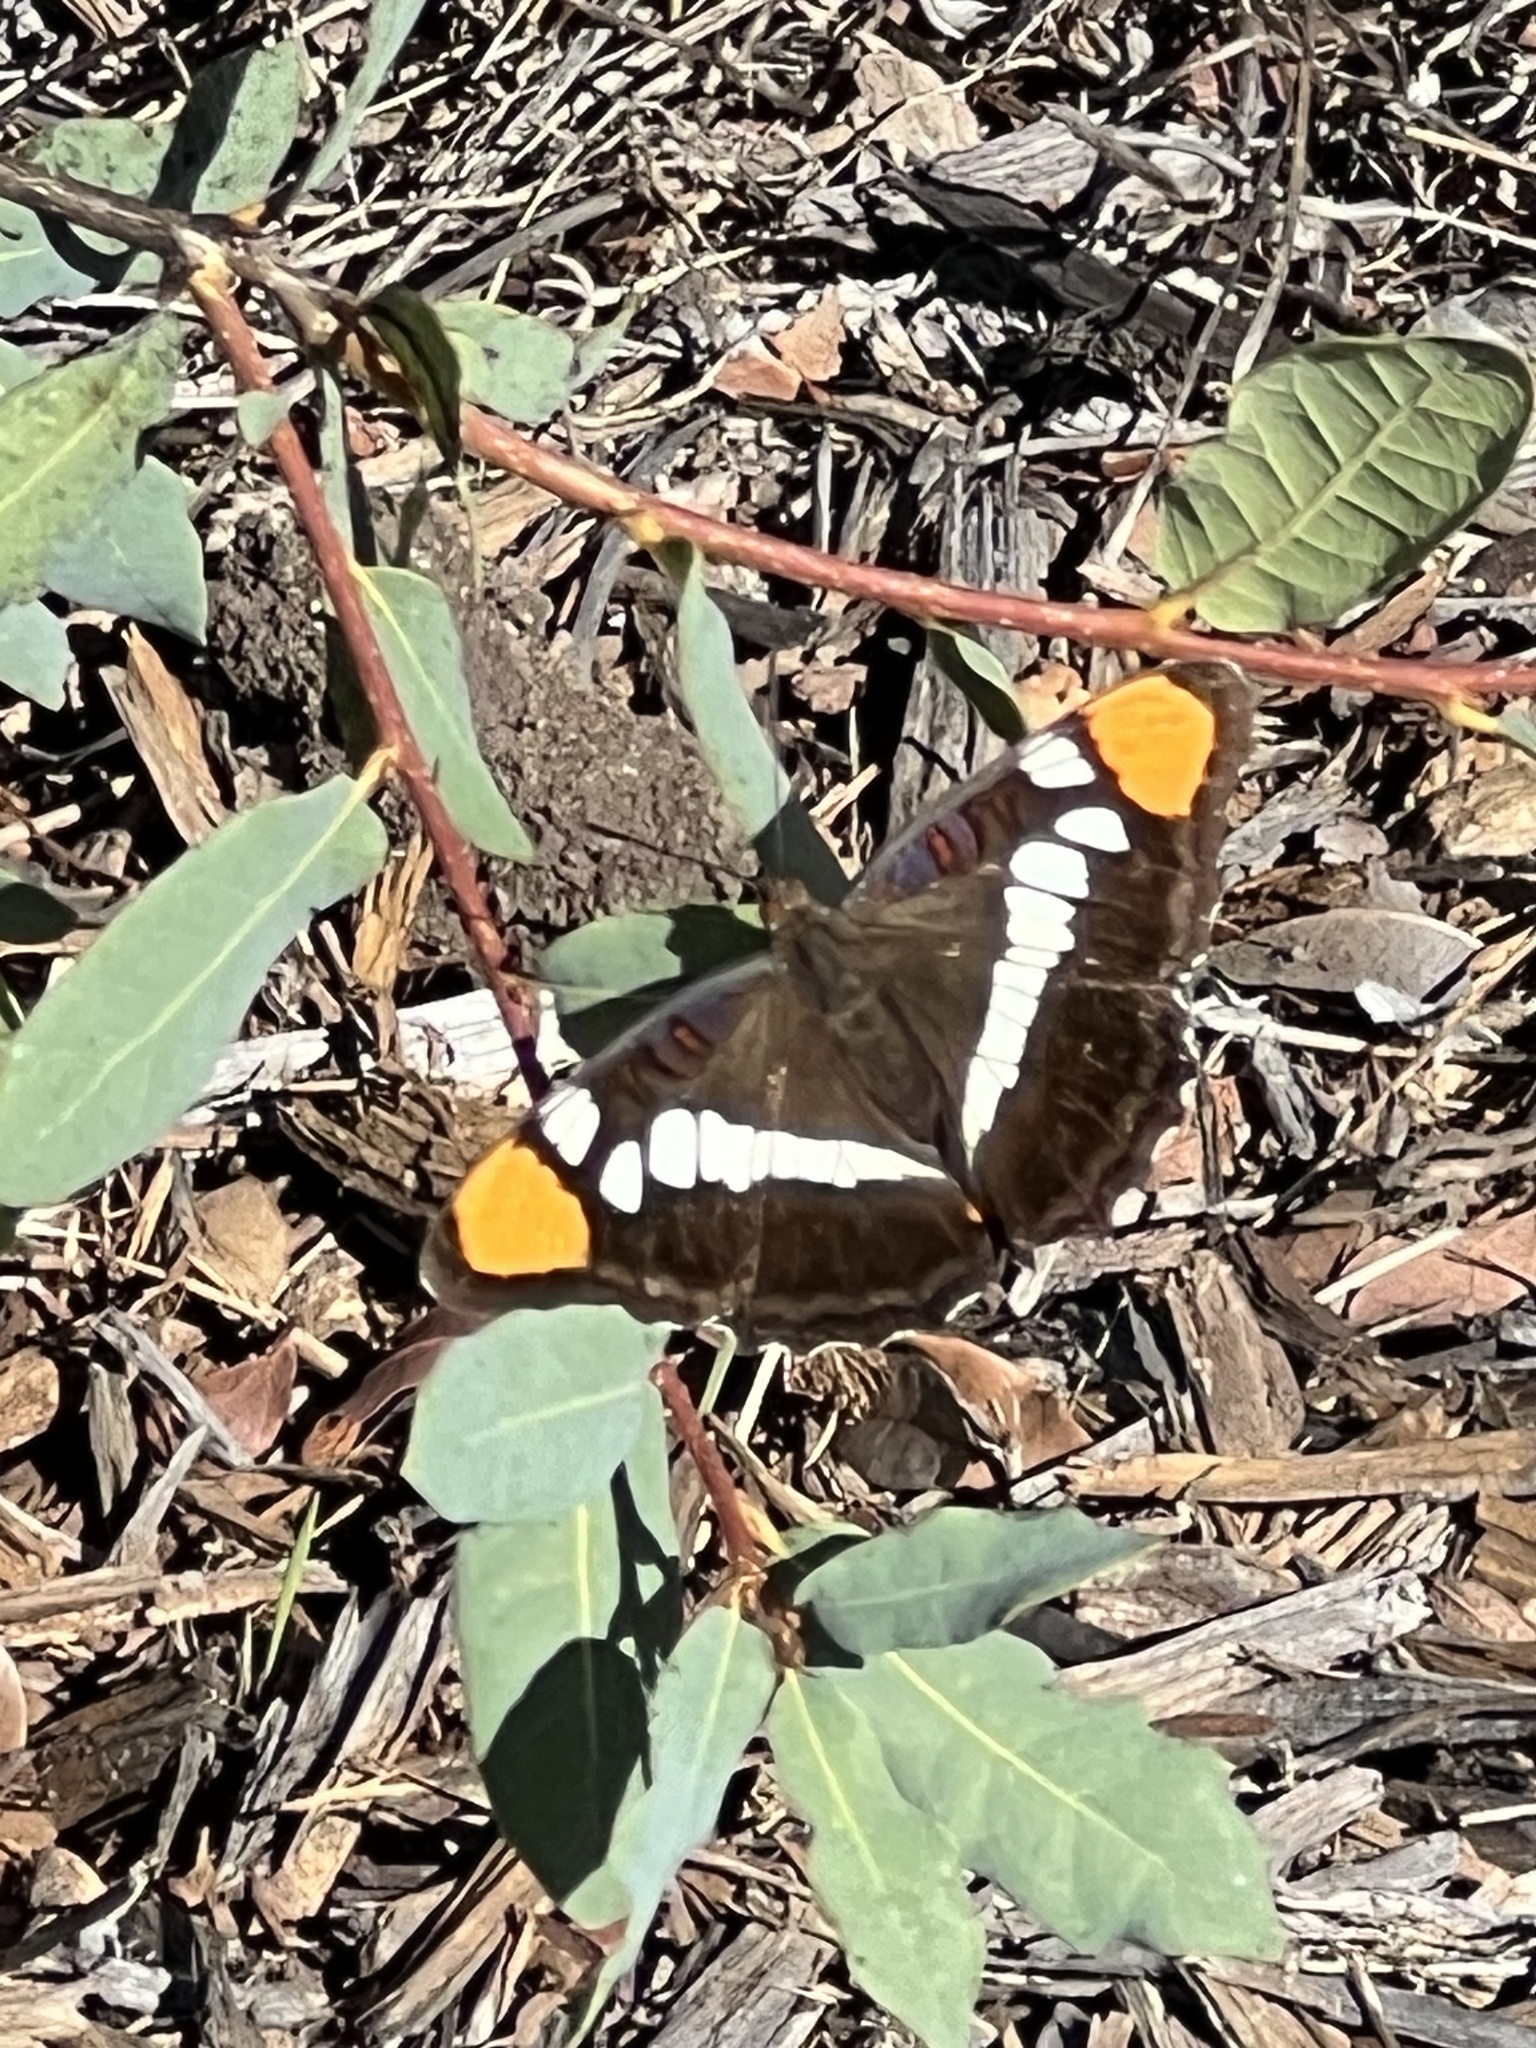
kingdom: Animalia
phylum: Arthropoda
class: Insecta
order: Lepidoptera
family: Nymphalidae
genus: Limenitis
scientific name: Limenitis bredowii
